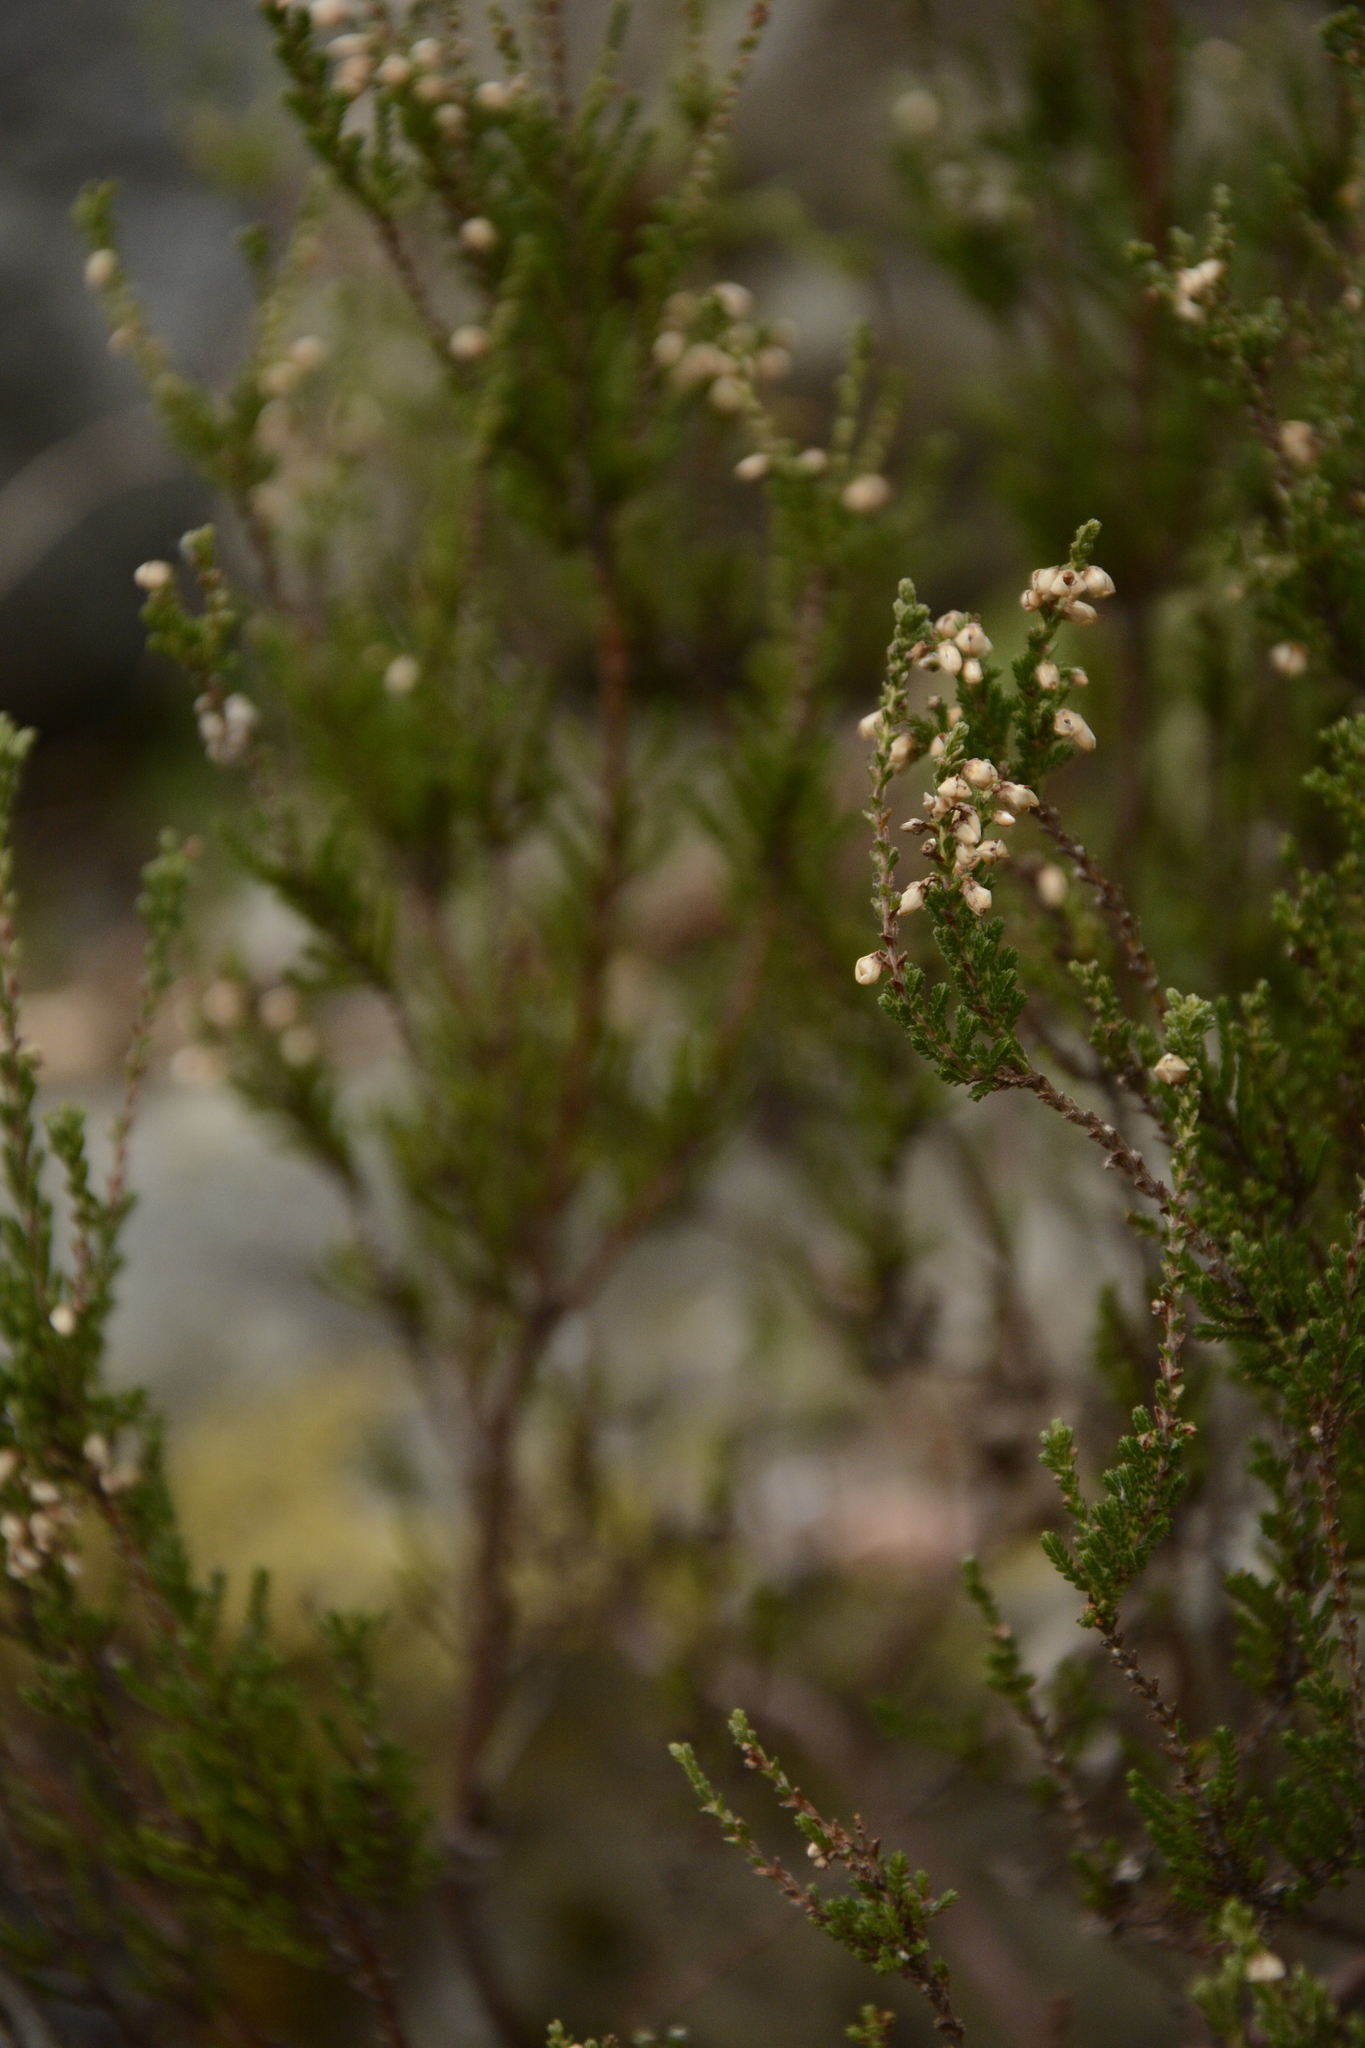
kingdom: Plantae
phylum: Tracheophyta
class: Magnoliopsida
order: Ericales
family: Ericaceae
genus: Calluna
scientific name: Calluna vulgaris
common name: Heather
